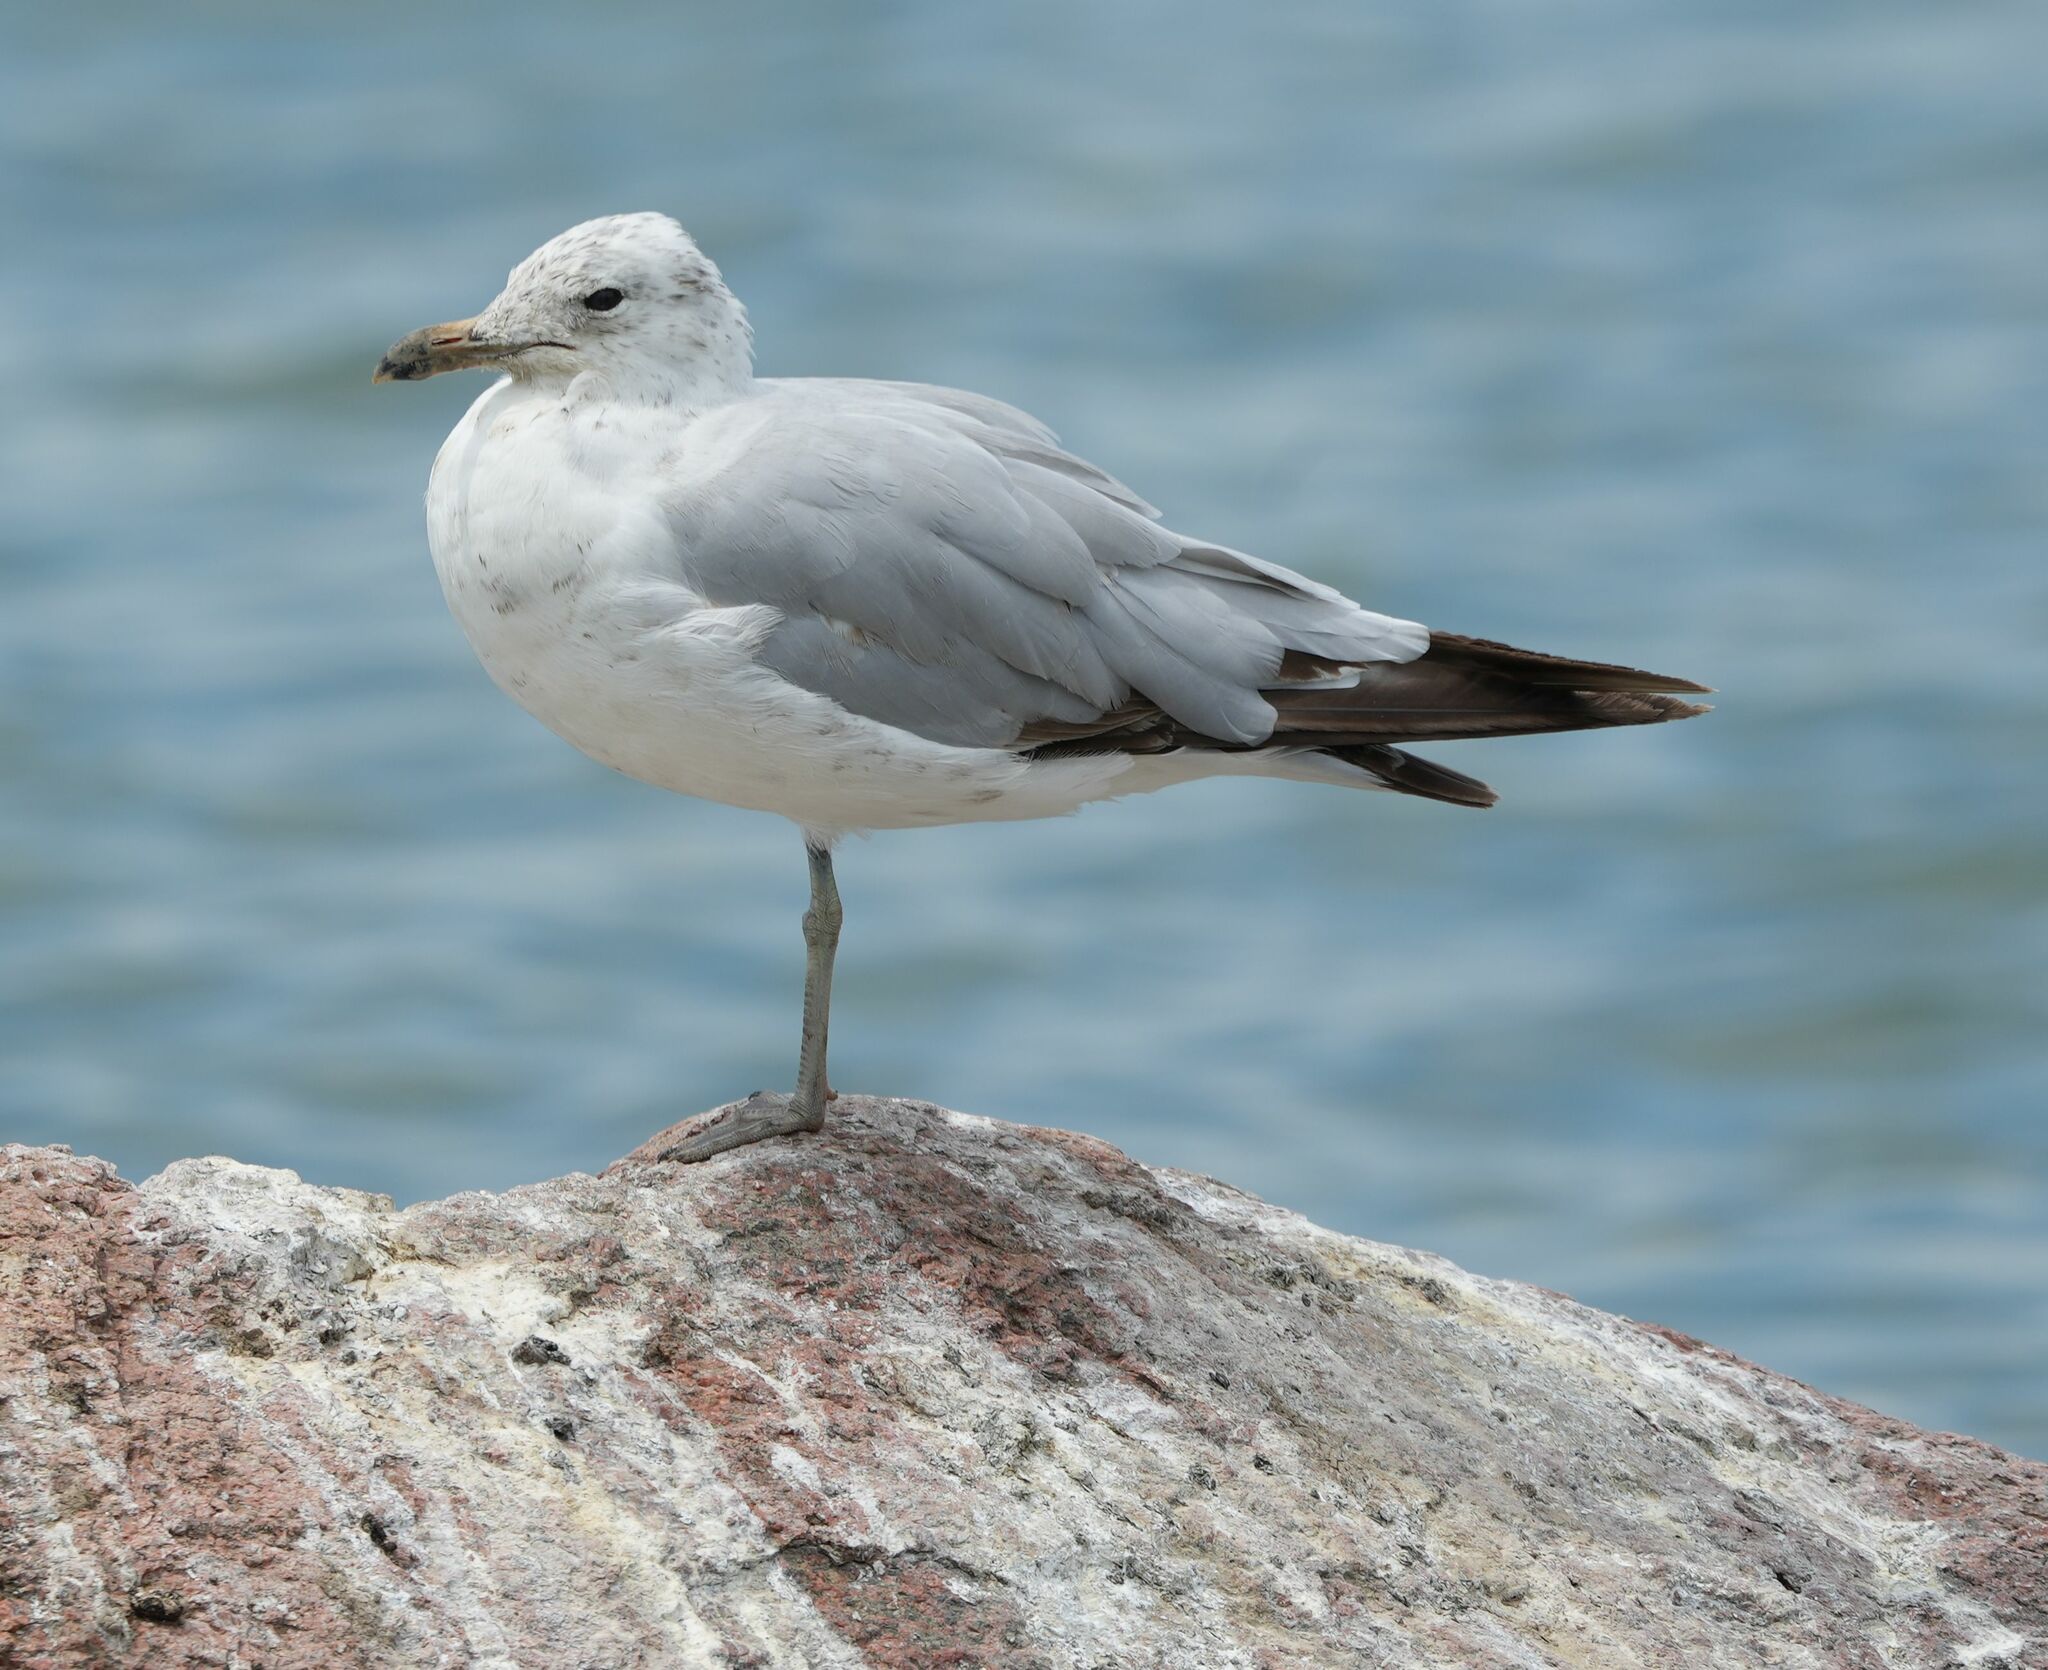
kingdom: Animalia
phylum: Chordata
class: Aves
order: Charadriiformes
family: Laridae
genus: Larus
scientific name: Larus delawarensis
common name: Ring-billed gull
